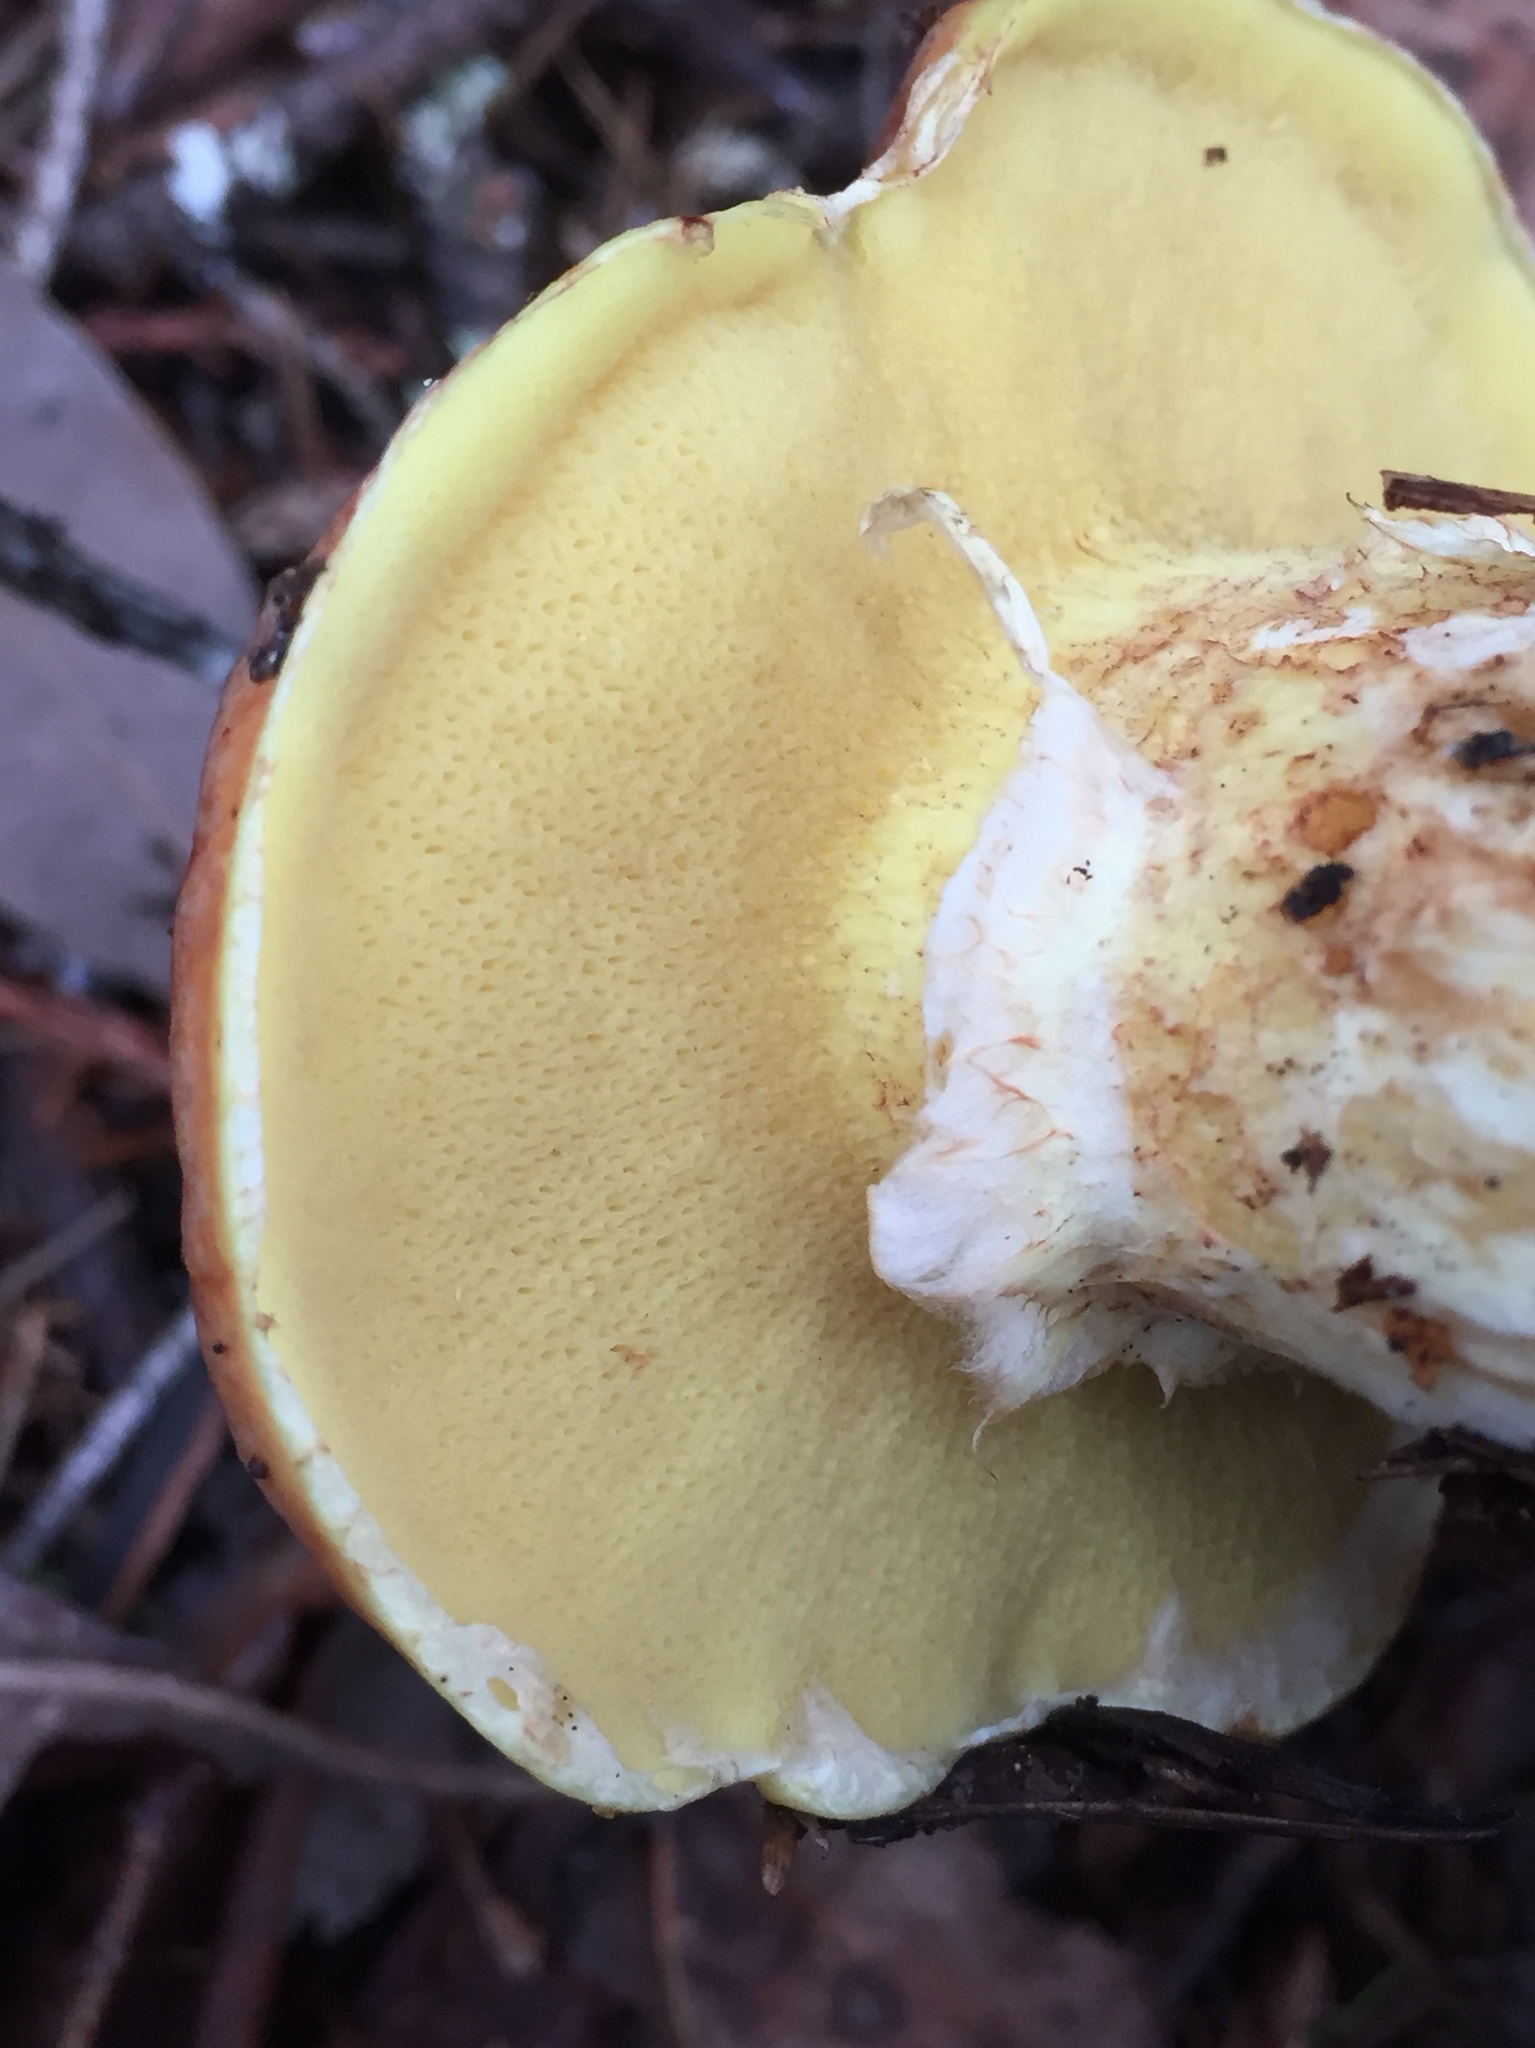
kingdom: Fungi
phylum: Basidiomycota
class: Agaricomycetes
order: Boletales
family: Suillaceae
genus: Suillus
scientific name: Suillus caerulescens
